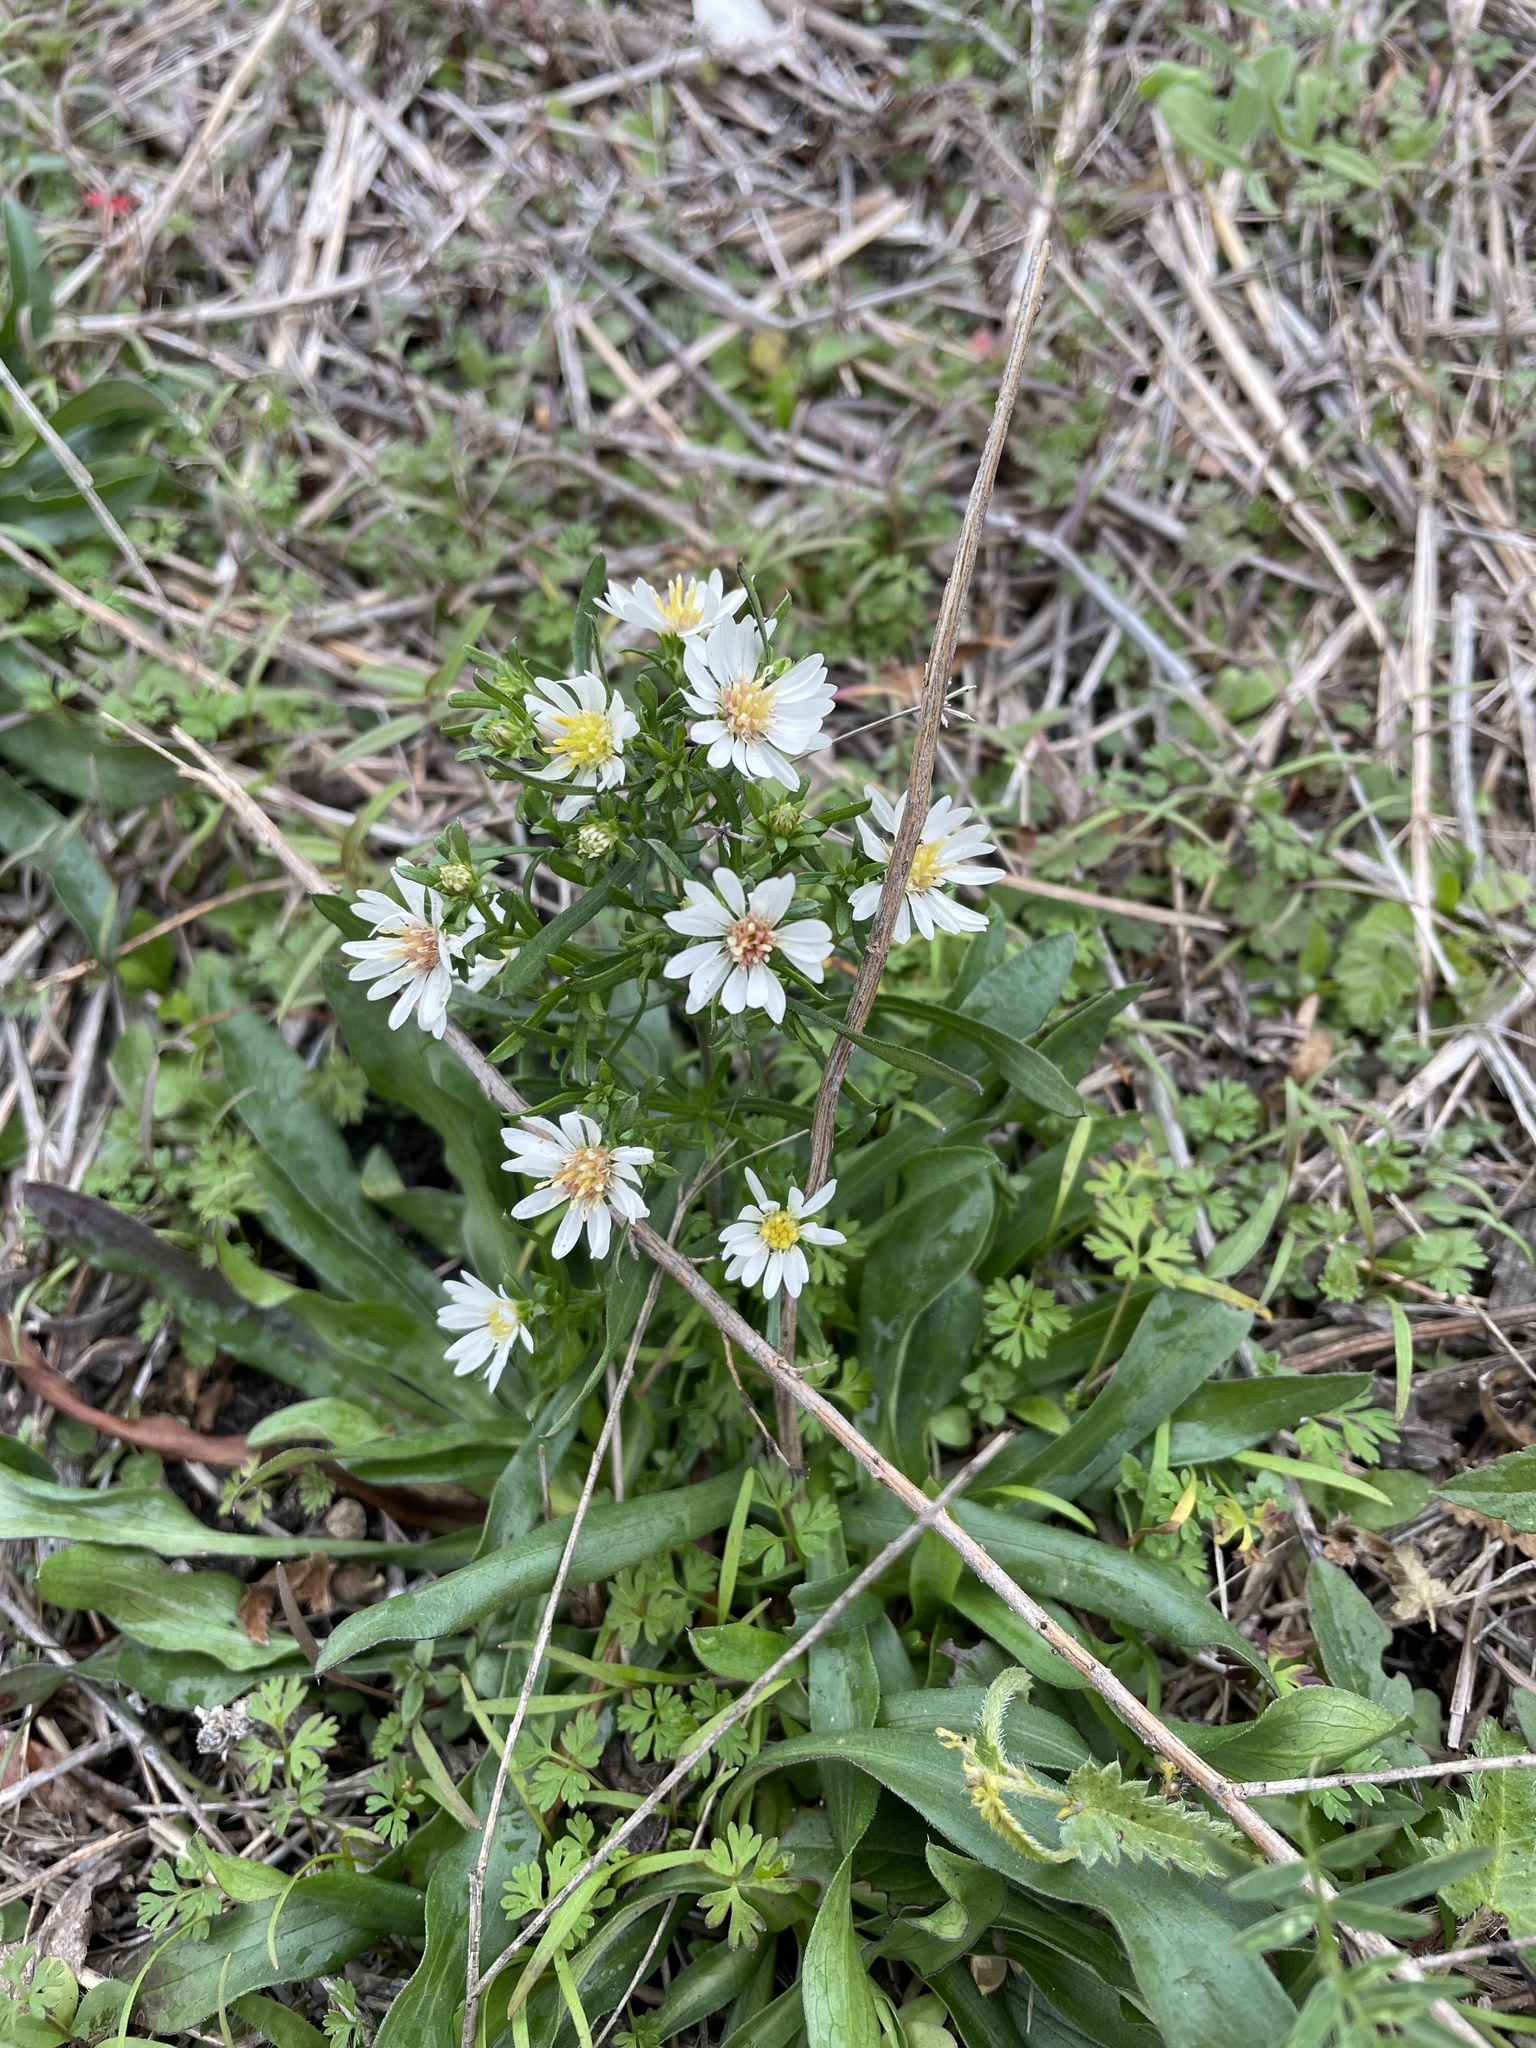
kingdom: Plantae
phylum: Tracheophyta
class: Magnoliopsida
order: Asterales
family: Asteraceae
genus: Symphyotrichum
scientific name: Symphyotrichum ericoides
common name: Heath aster
